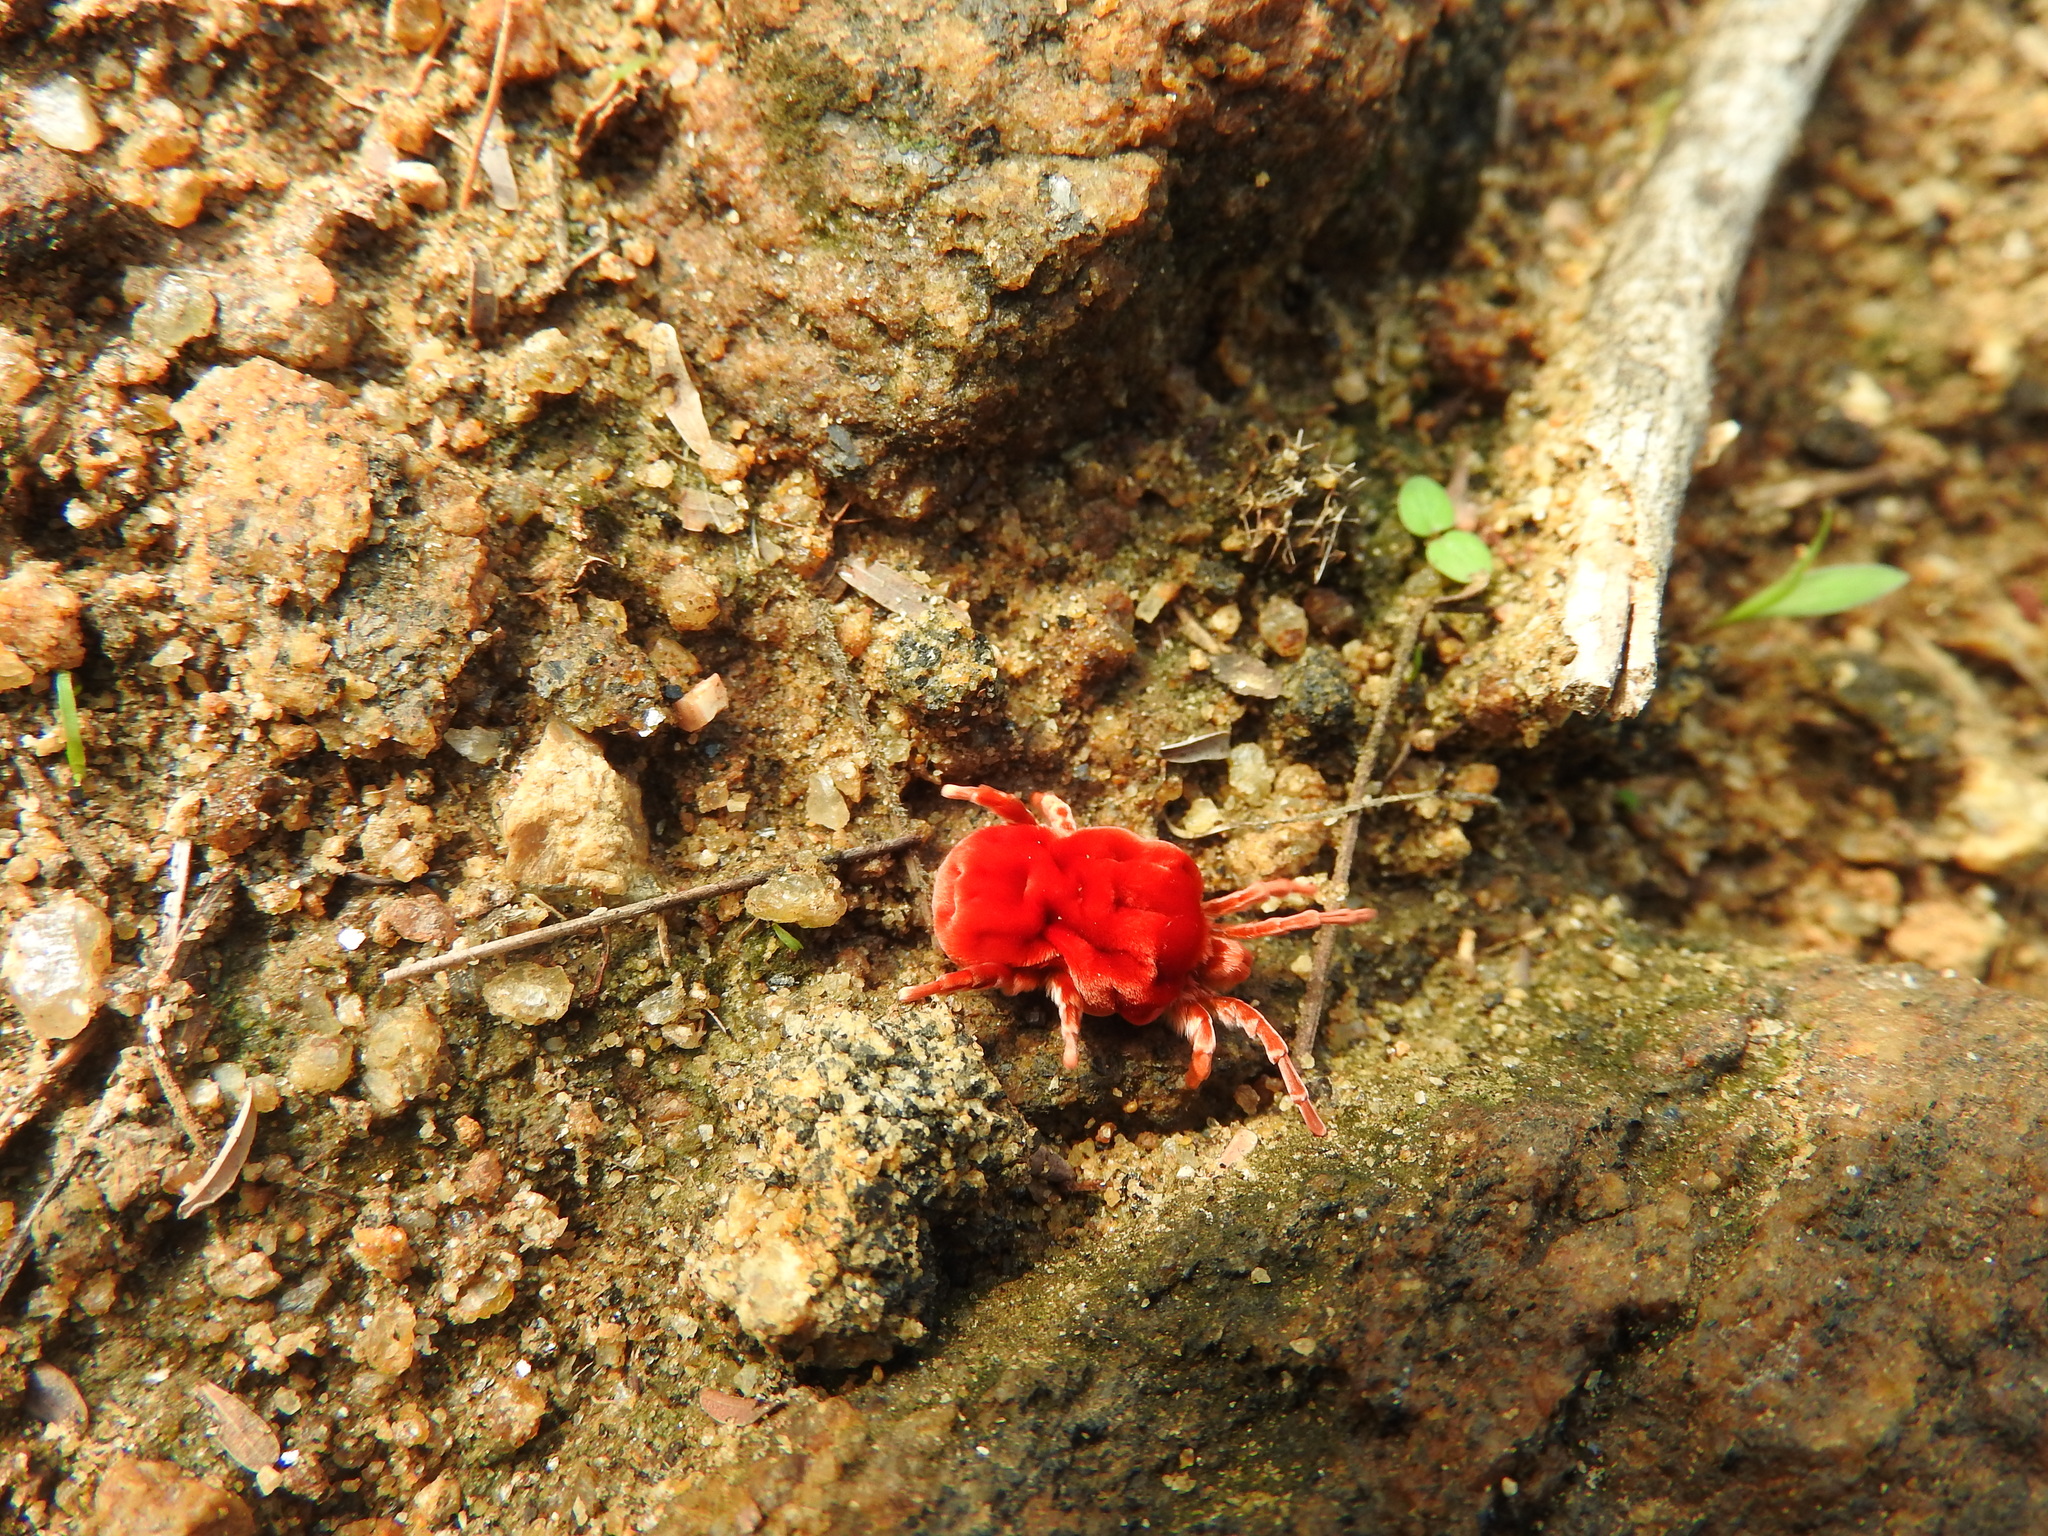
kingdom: Animalia
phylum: Arthropoda
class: Arachnida
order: Trombidiformes
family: Leeuwenhoekiidae
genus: Dinothrombium
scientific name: Dinothrombium
